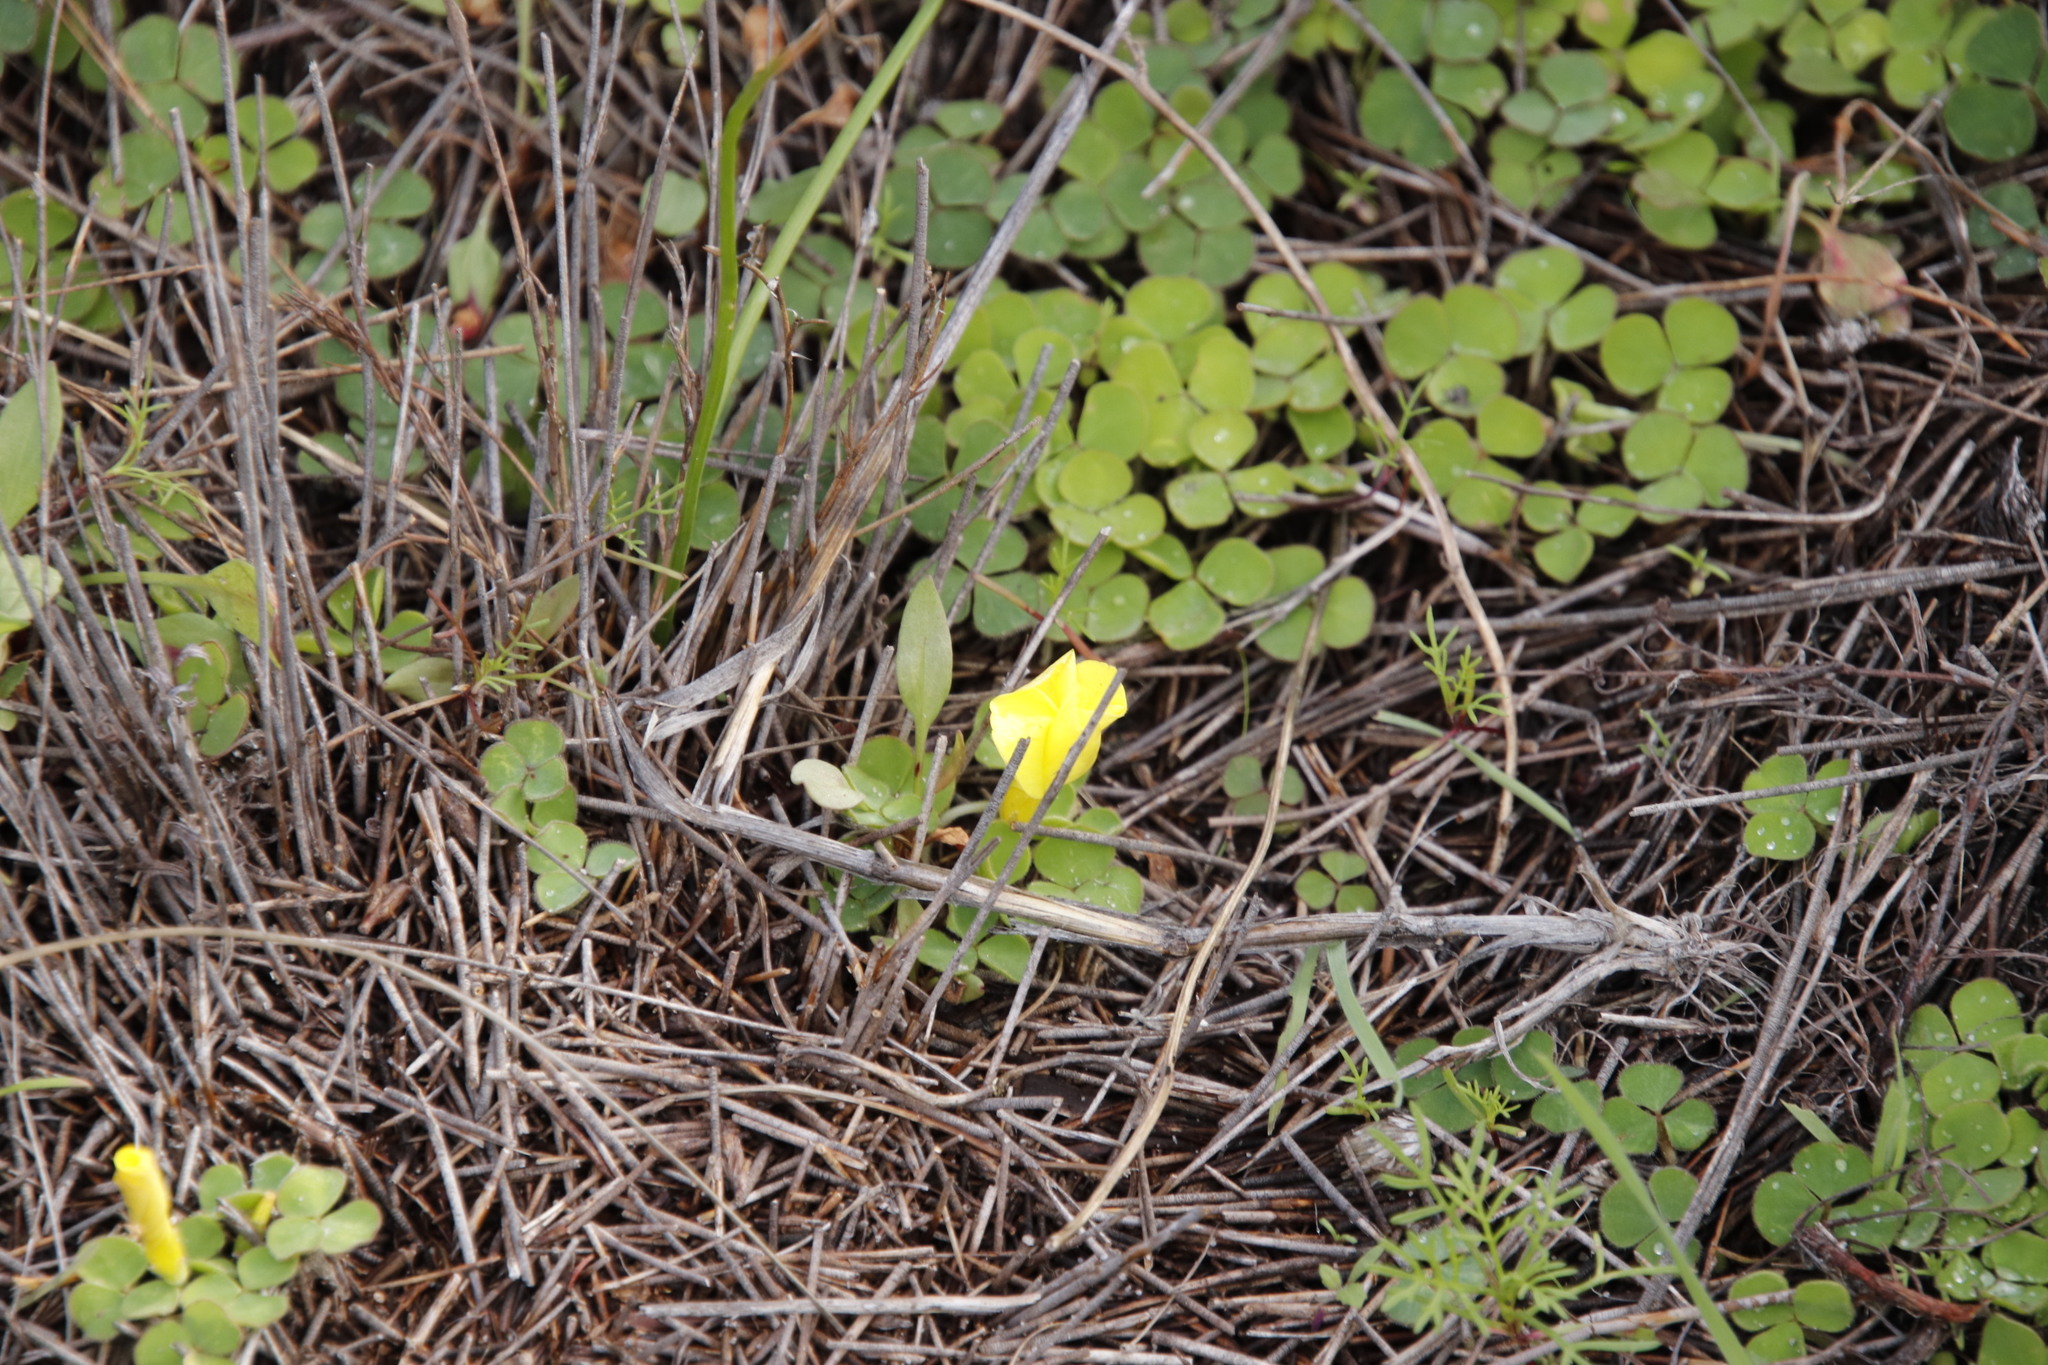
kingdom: Plantae
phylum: Tracheophyta
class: Magnoliopsida
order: Oxalidales
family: Oxalidaceae
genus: Oxalis
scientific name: Oxalis luteola
